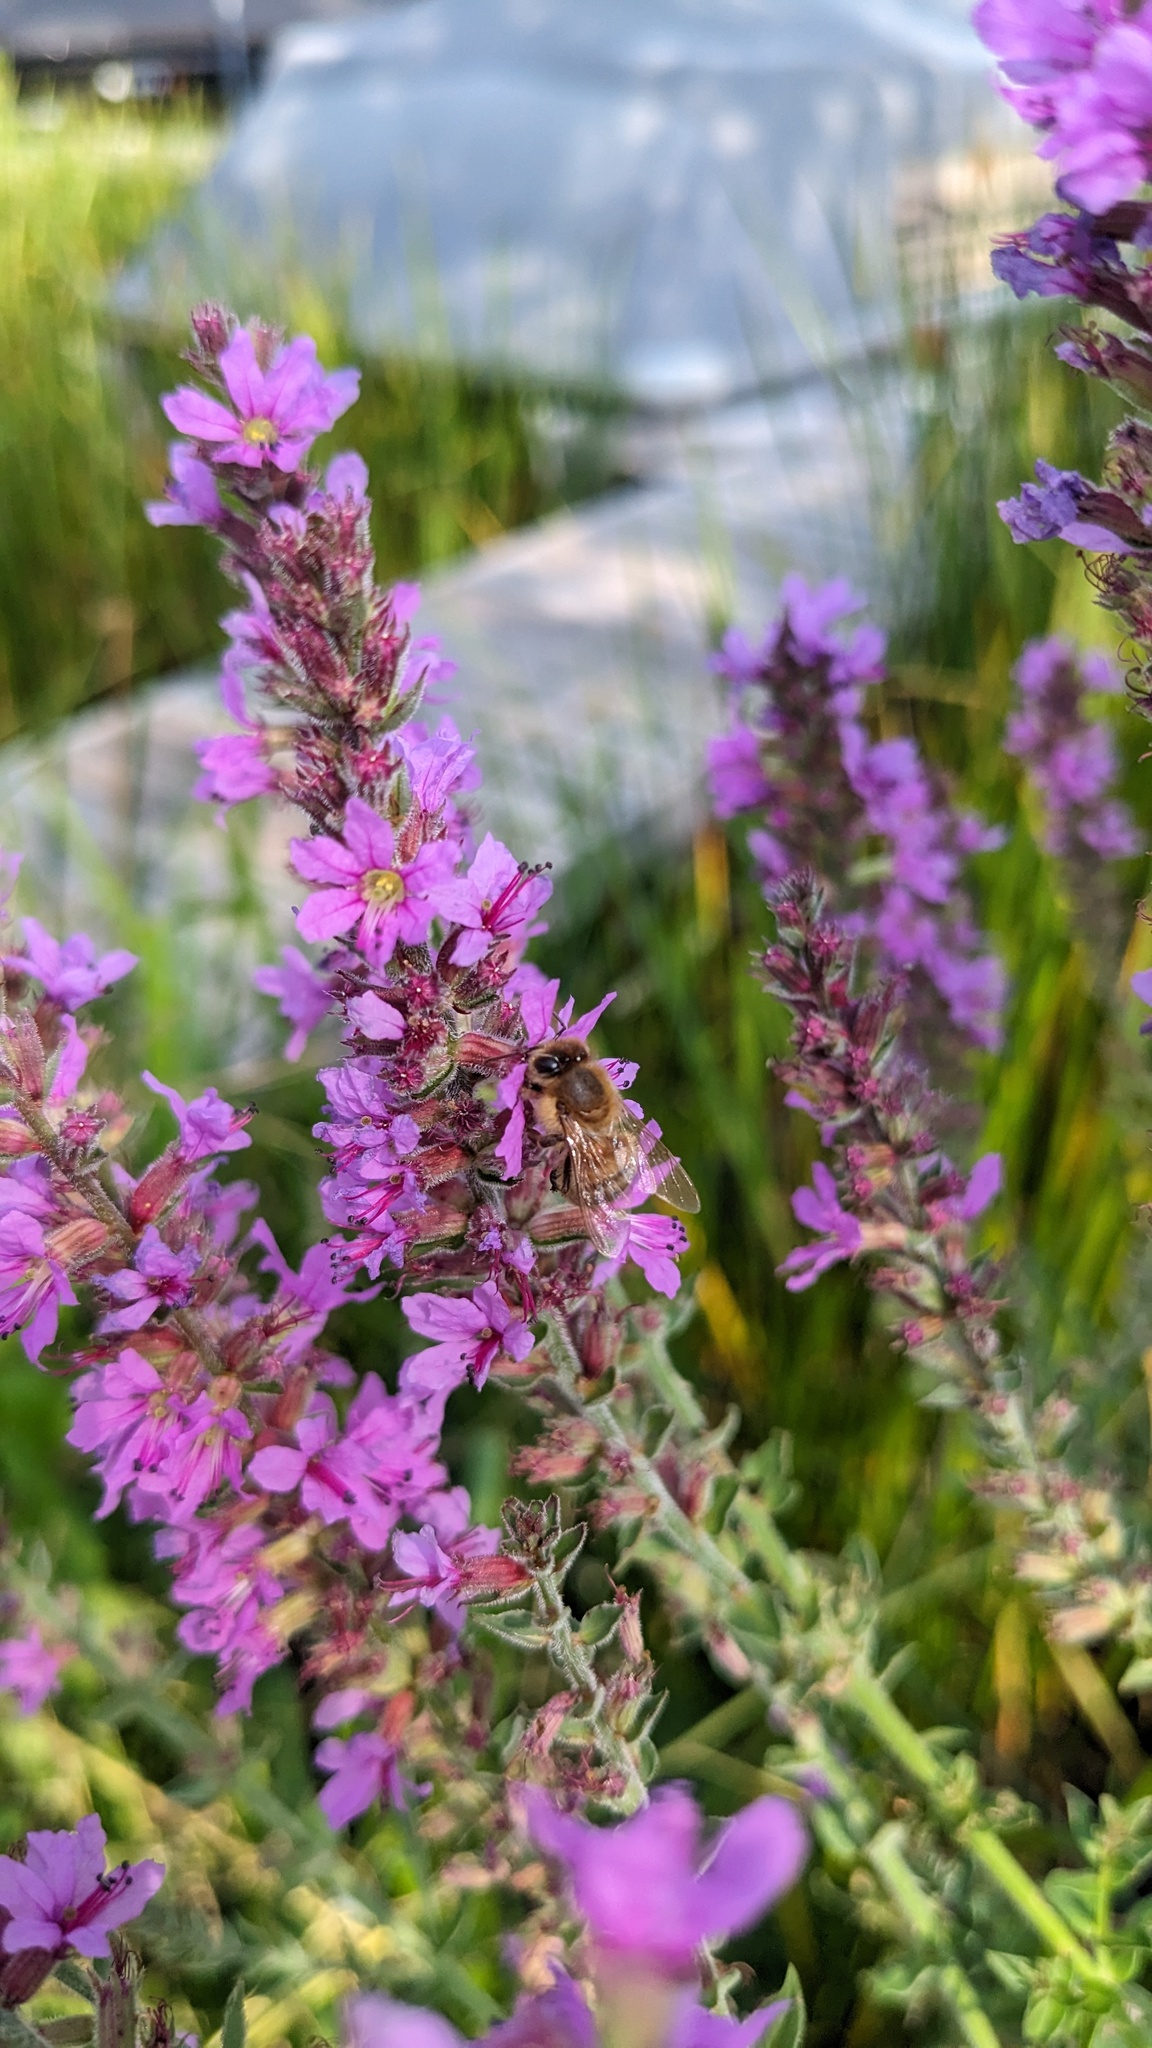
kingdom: Animalia
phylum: Arthropoda
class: Insecta
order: Hymenoptera
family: Apidae
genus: Apis
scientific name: Apis mellifera
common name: Honey bee
